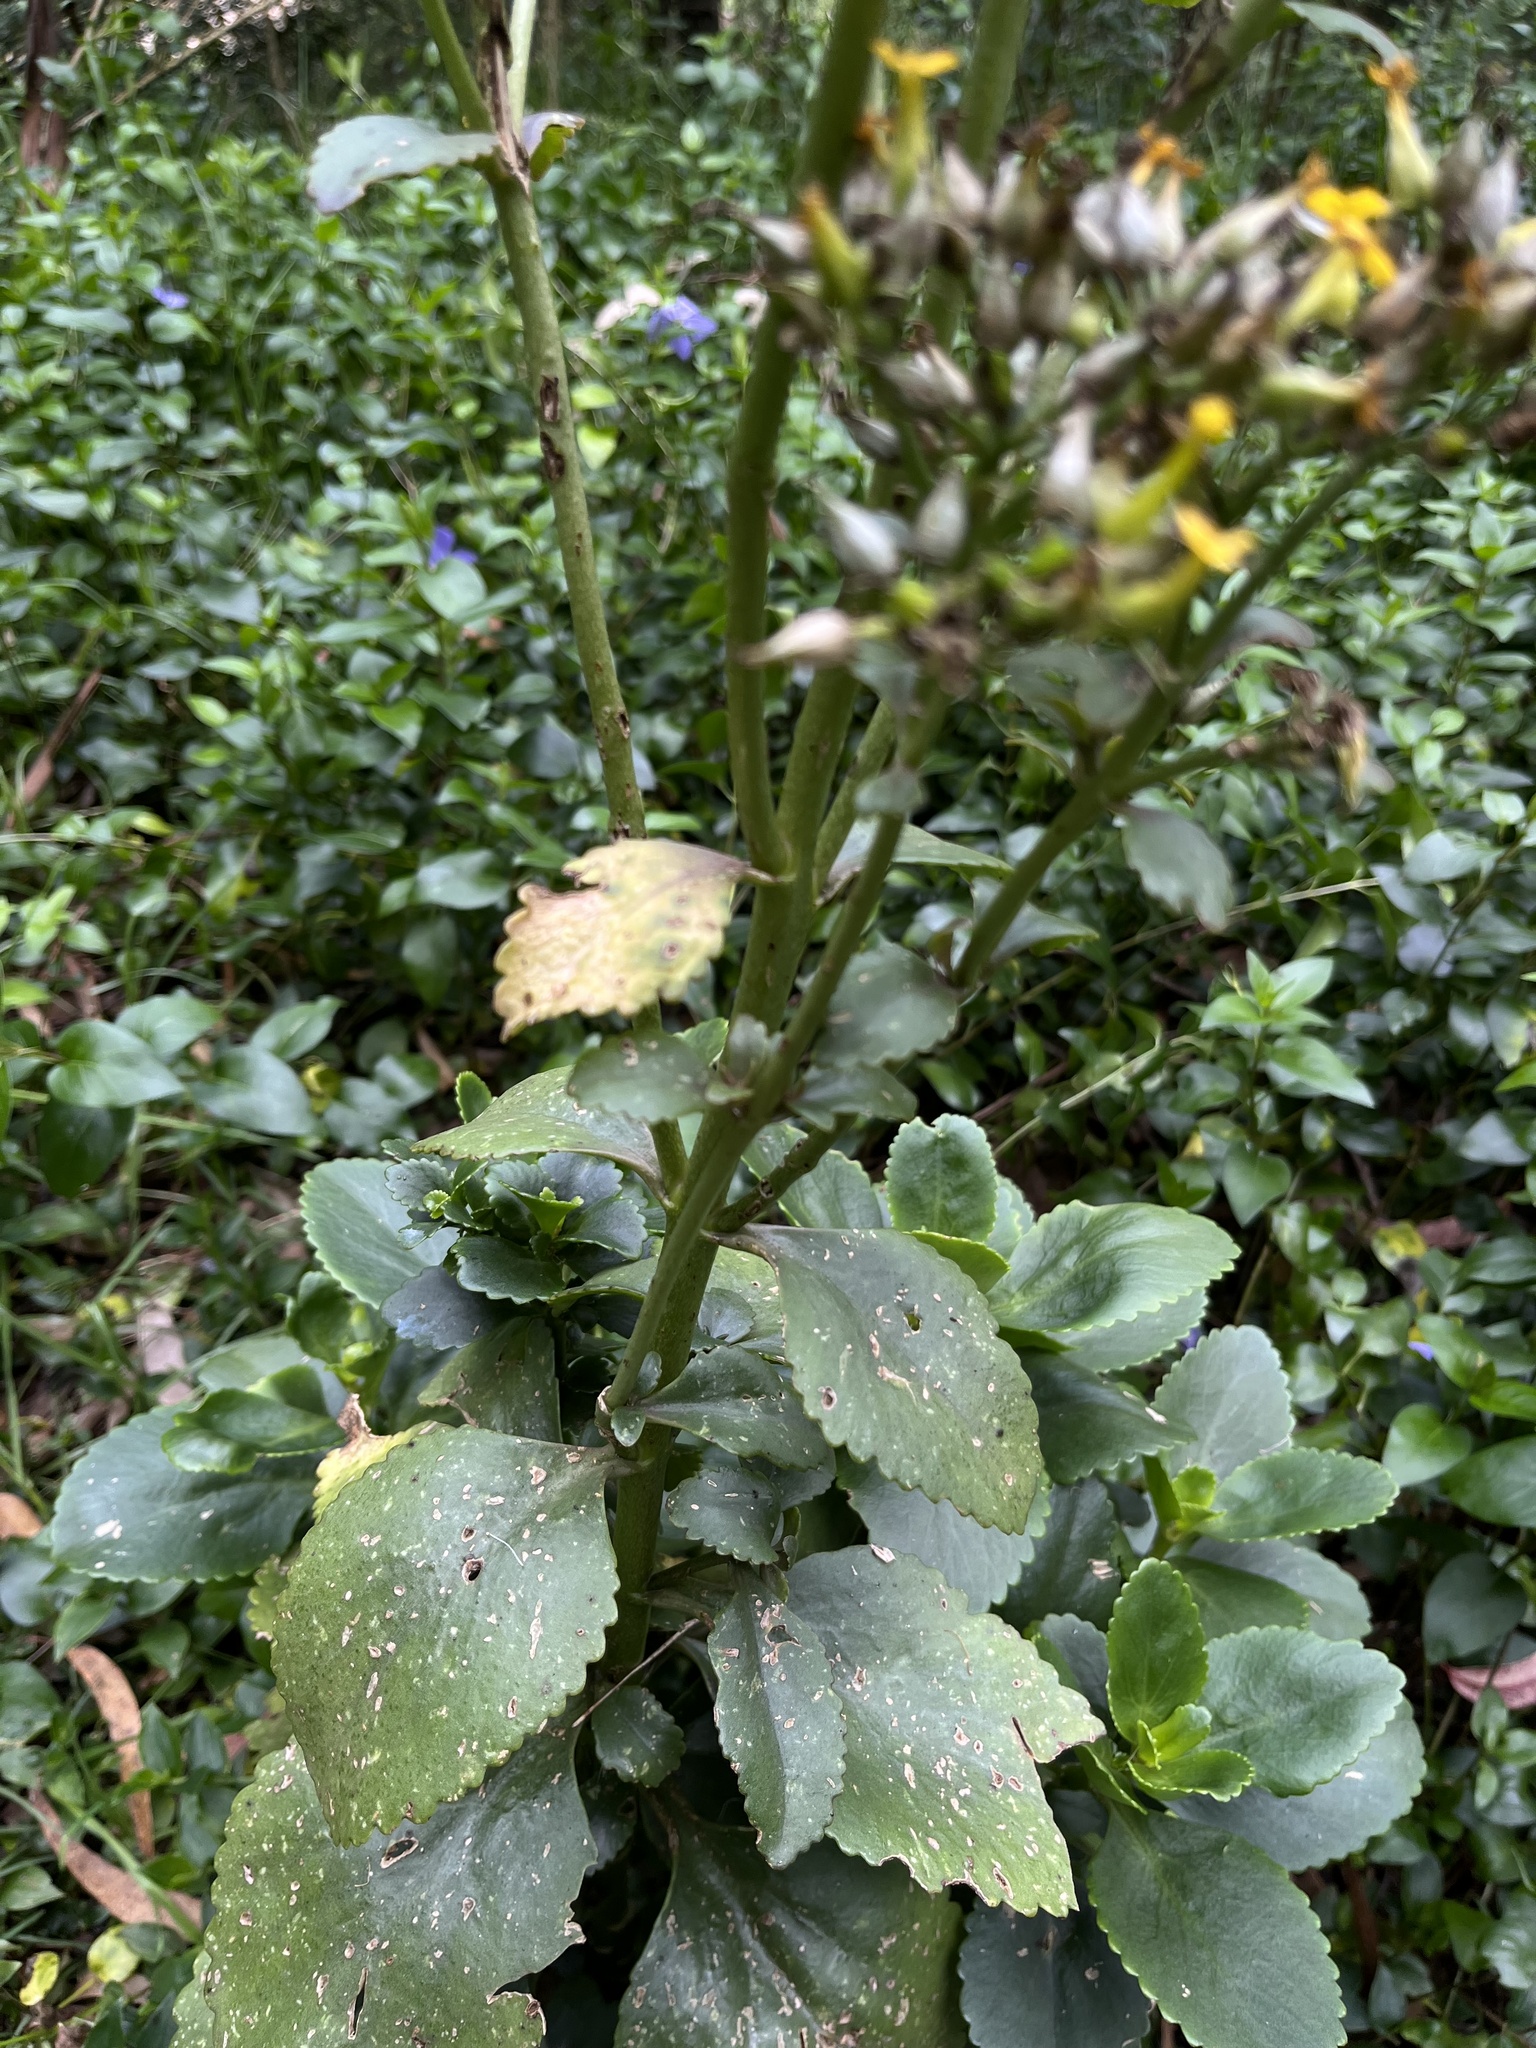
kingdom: Plantae
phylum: Tracheophyta
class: Magnoliopsida
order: Saxifragales
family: Crassulaceae
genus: Kalanchoe
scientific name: Kalanchoe densiflora
